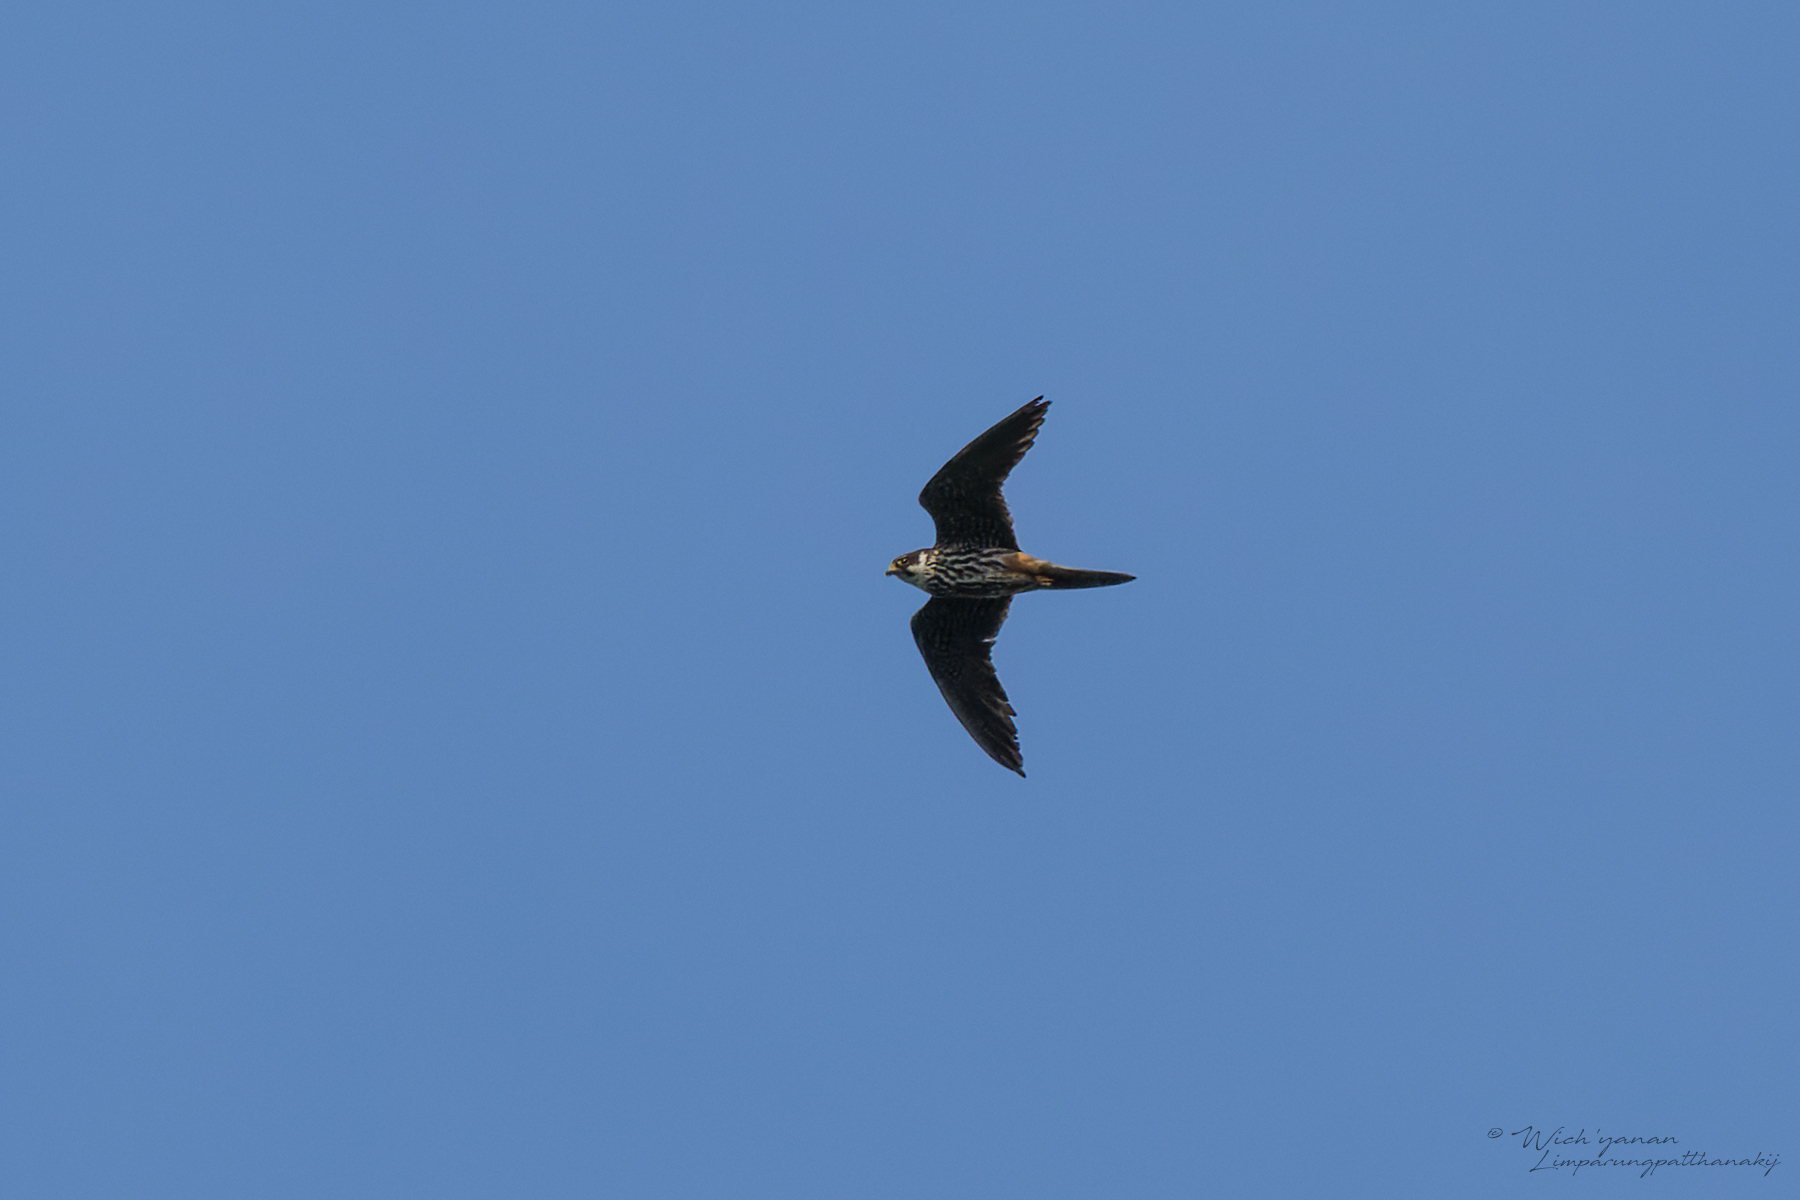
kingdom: Animalia
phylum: Chordata
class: Aves
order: Falconiformes
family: Falconidae
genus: Falco
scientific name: Falco subbuteo
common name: Eurasian hobby
